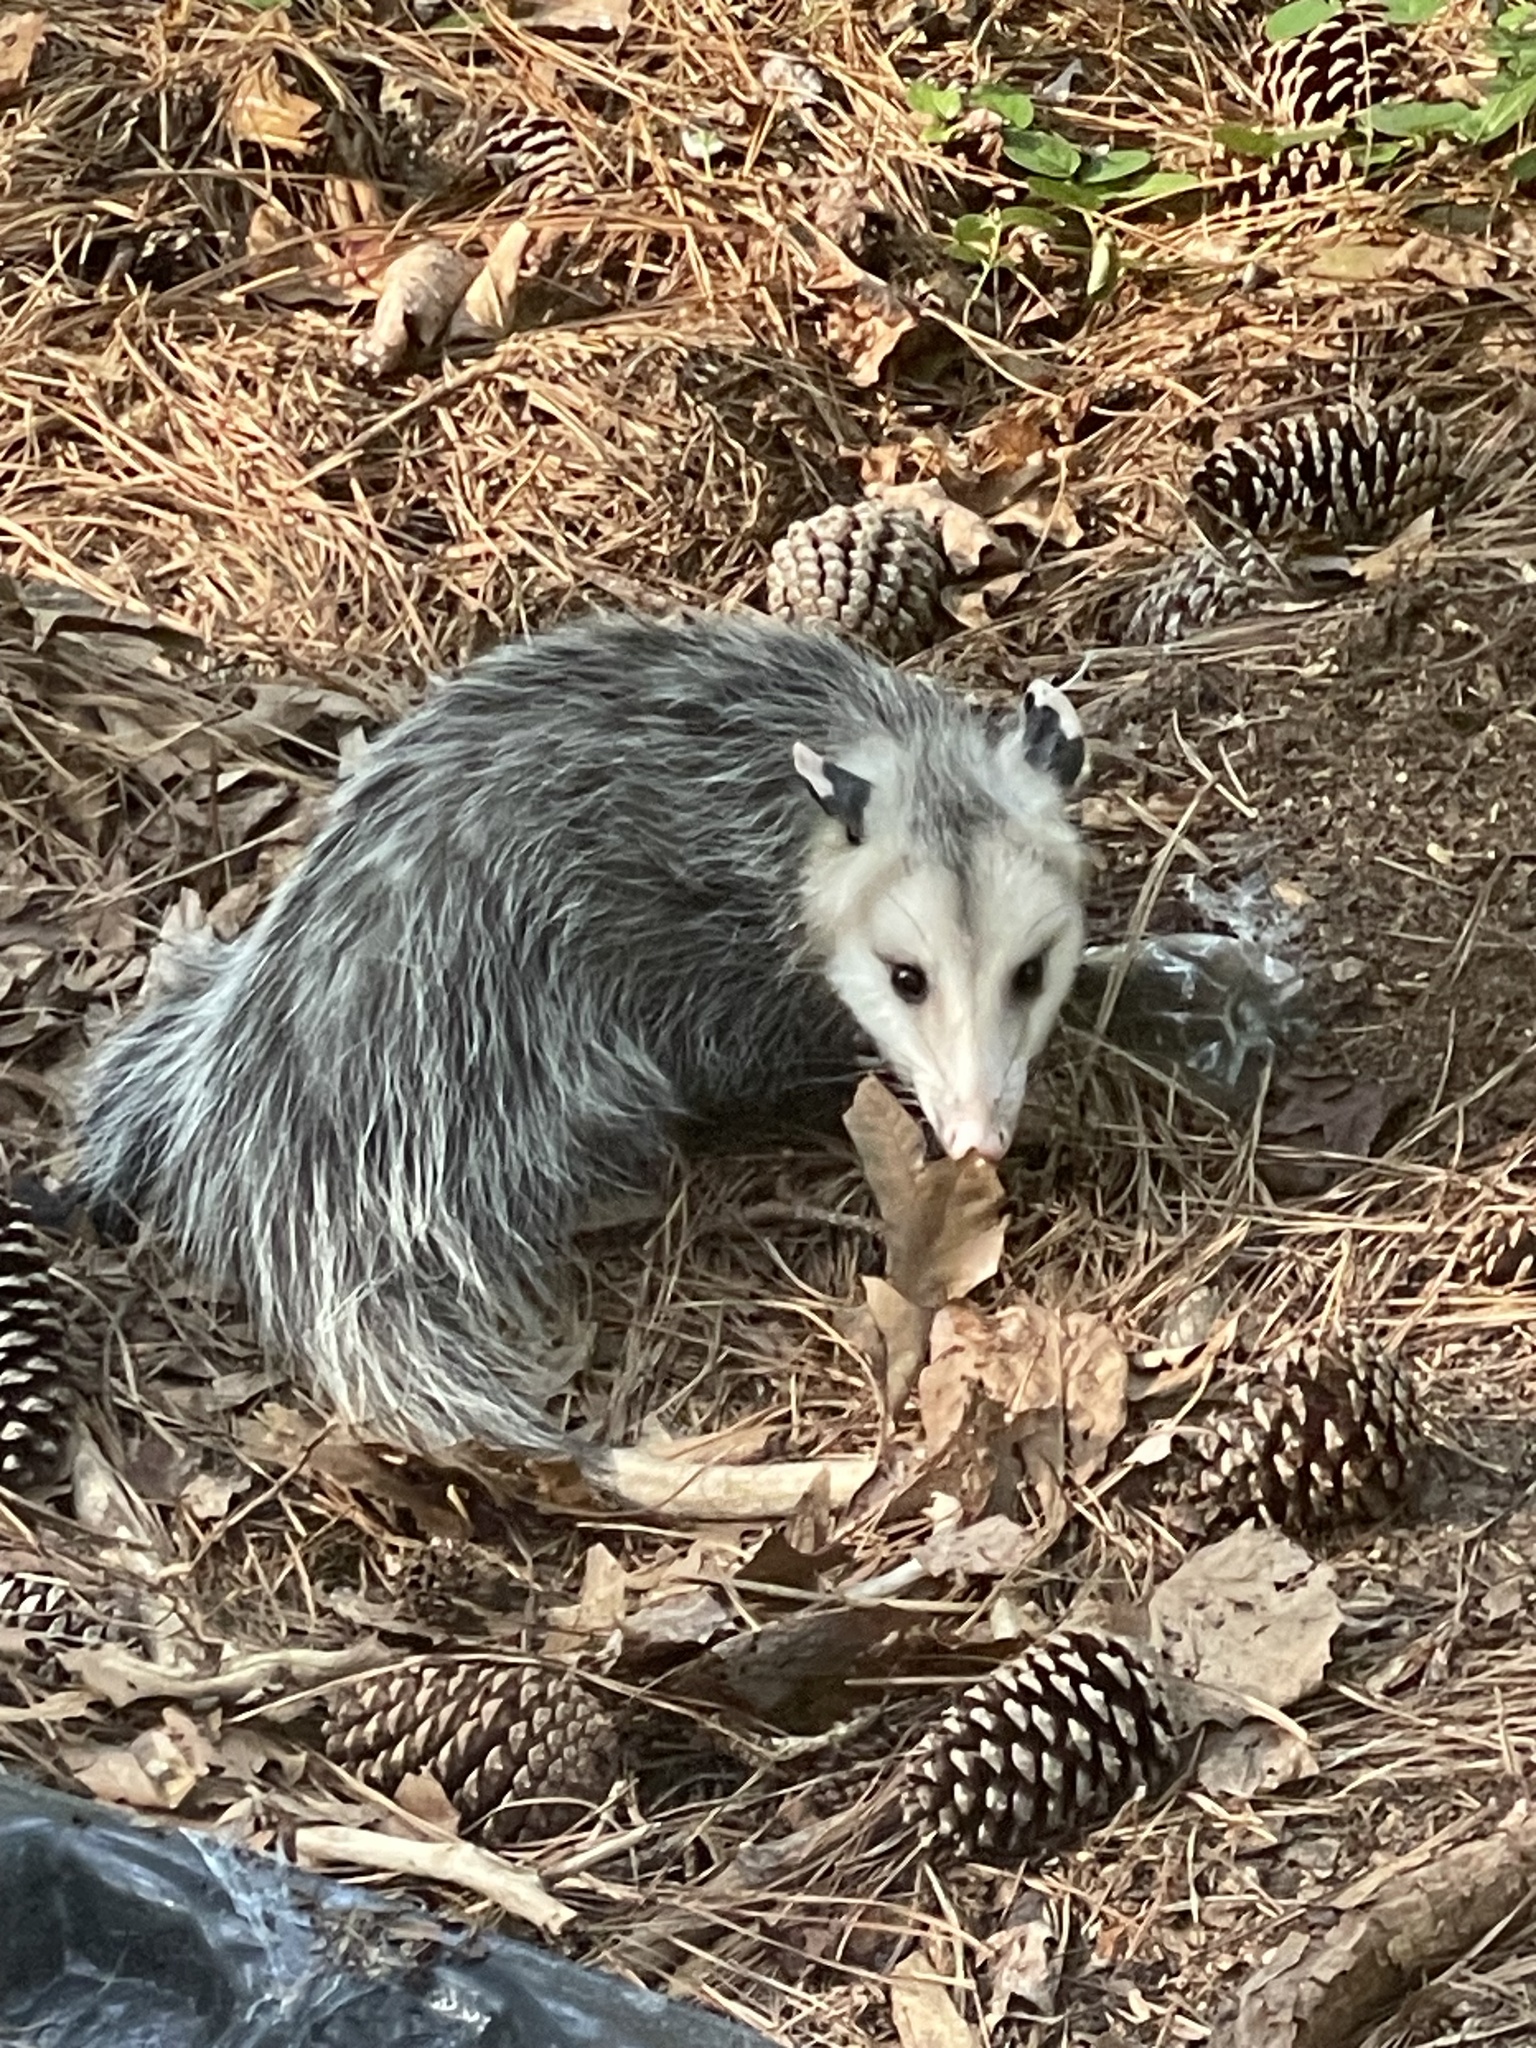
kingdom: Animalia
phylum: Chordata
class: Mammalia
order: Didelphimorphia
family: Didelphidae
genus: Didelphis
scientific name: Didelphis virginiana
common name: Virginia opossum
